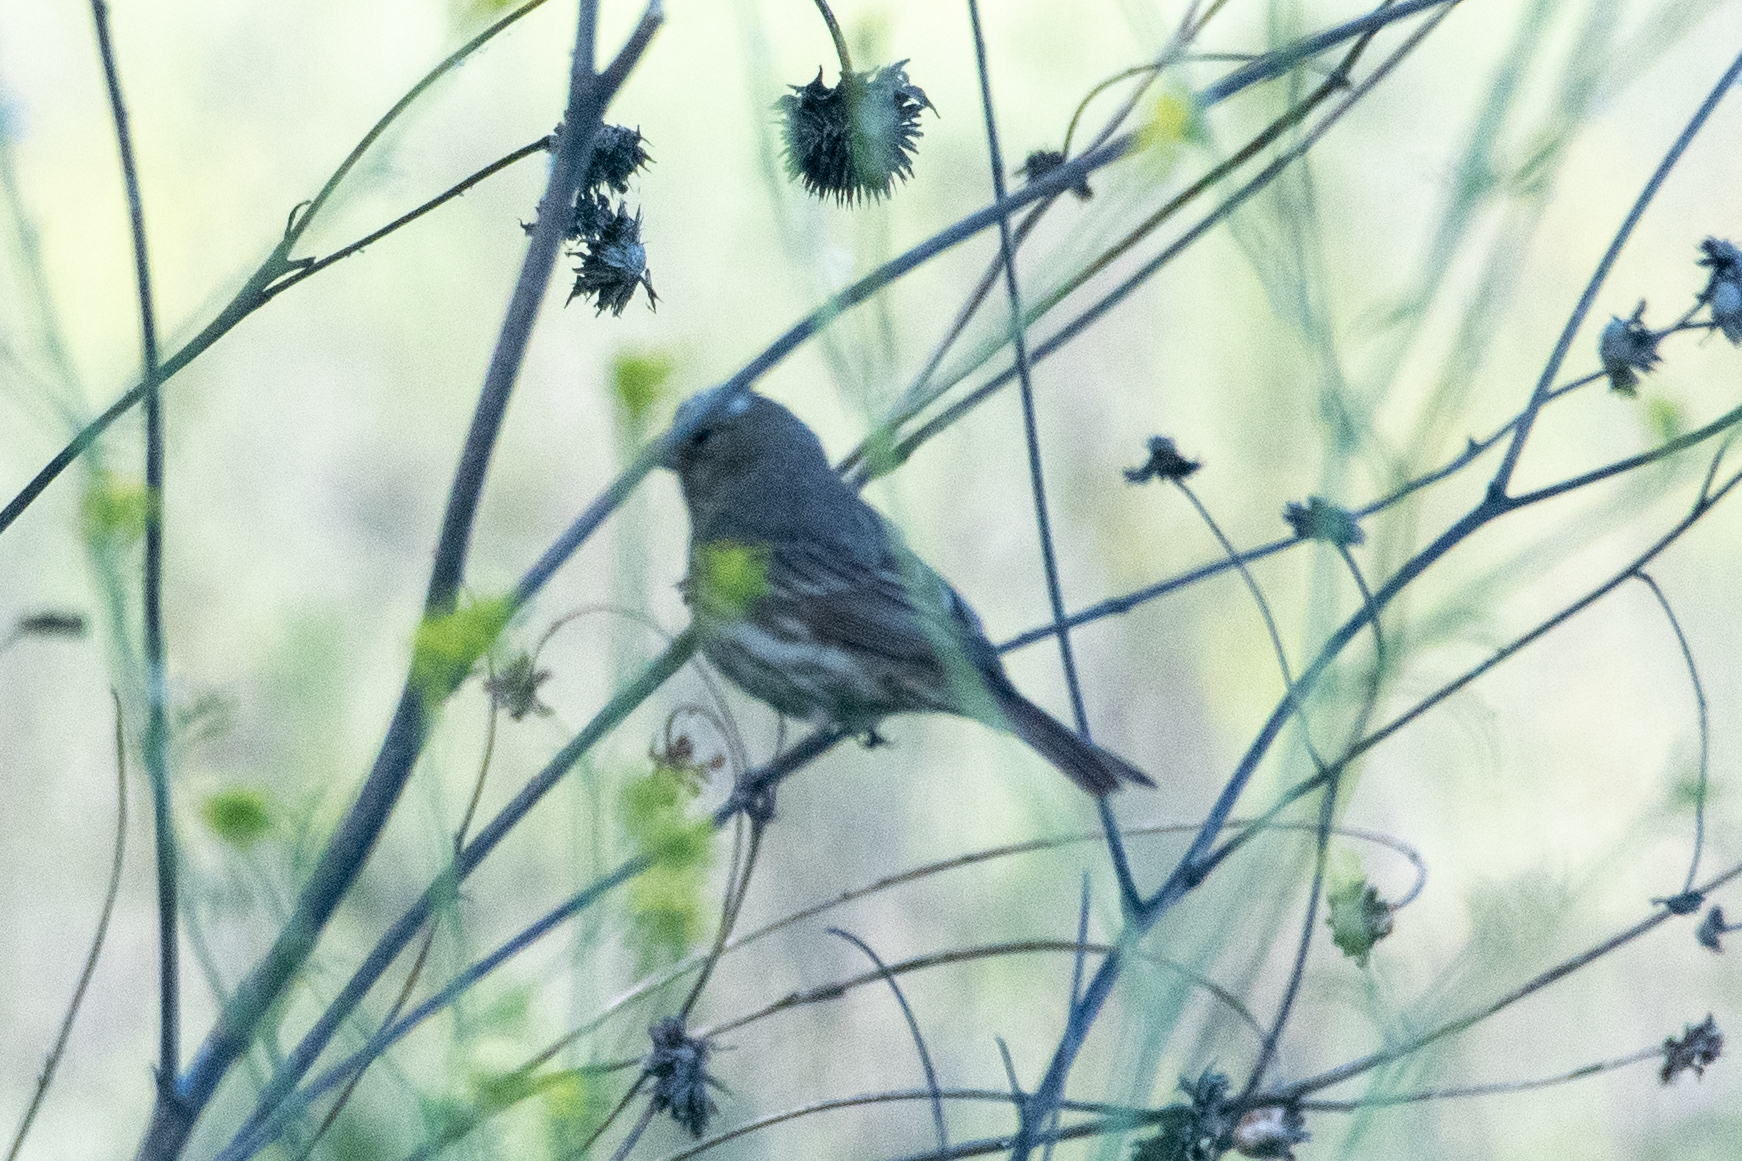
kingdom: Animalia
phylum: Chordata
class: Aves
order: Passeriformes
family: Fringillidae
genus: Haemorhous
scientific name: Haemorhous mexicanus
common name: House finch
